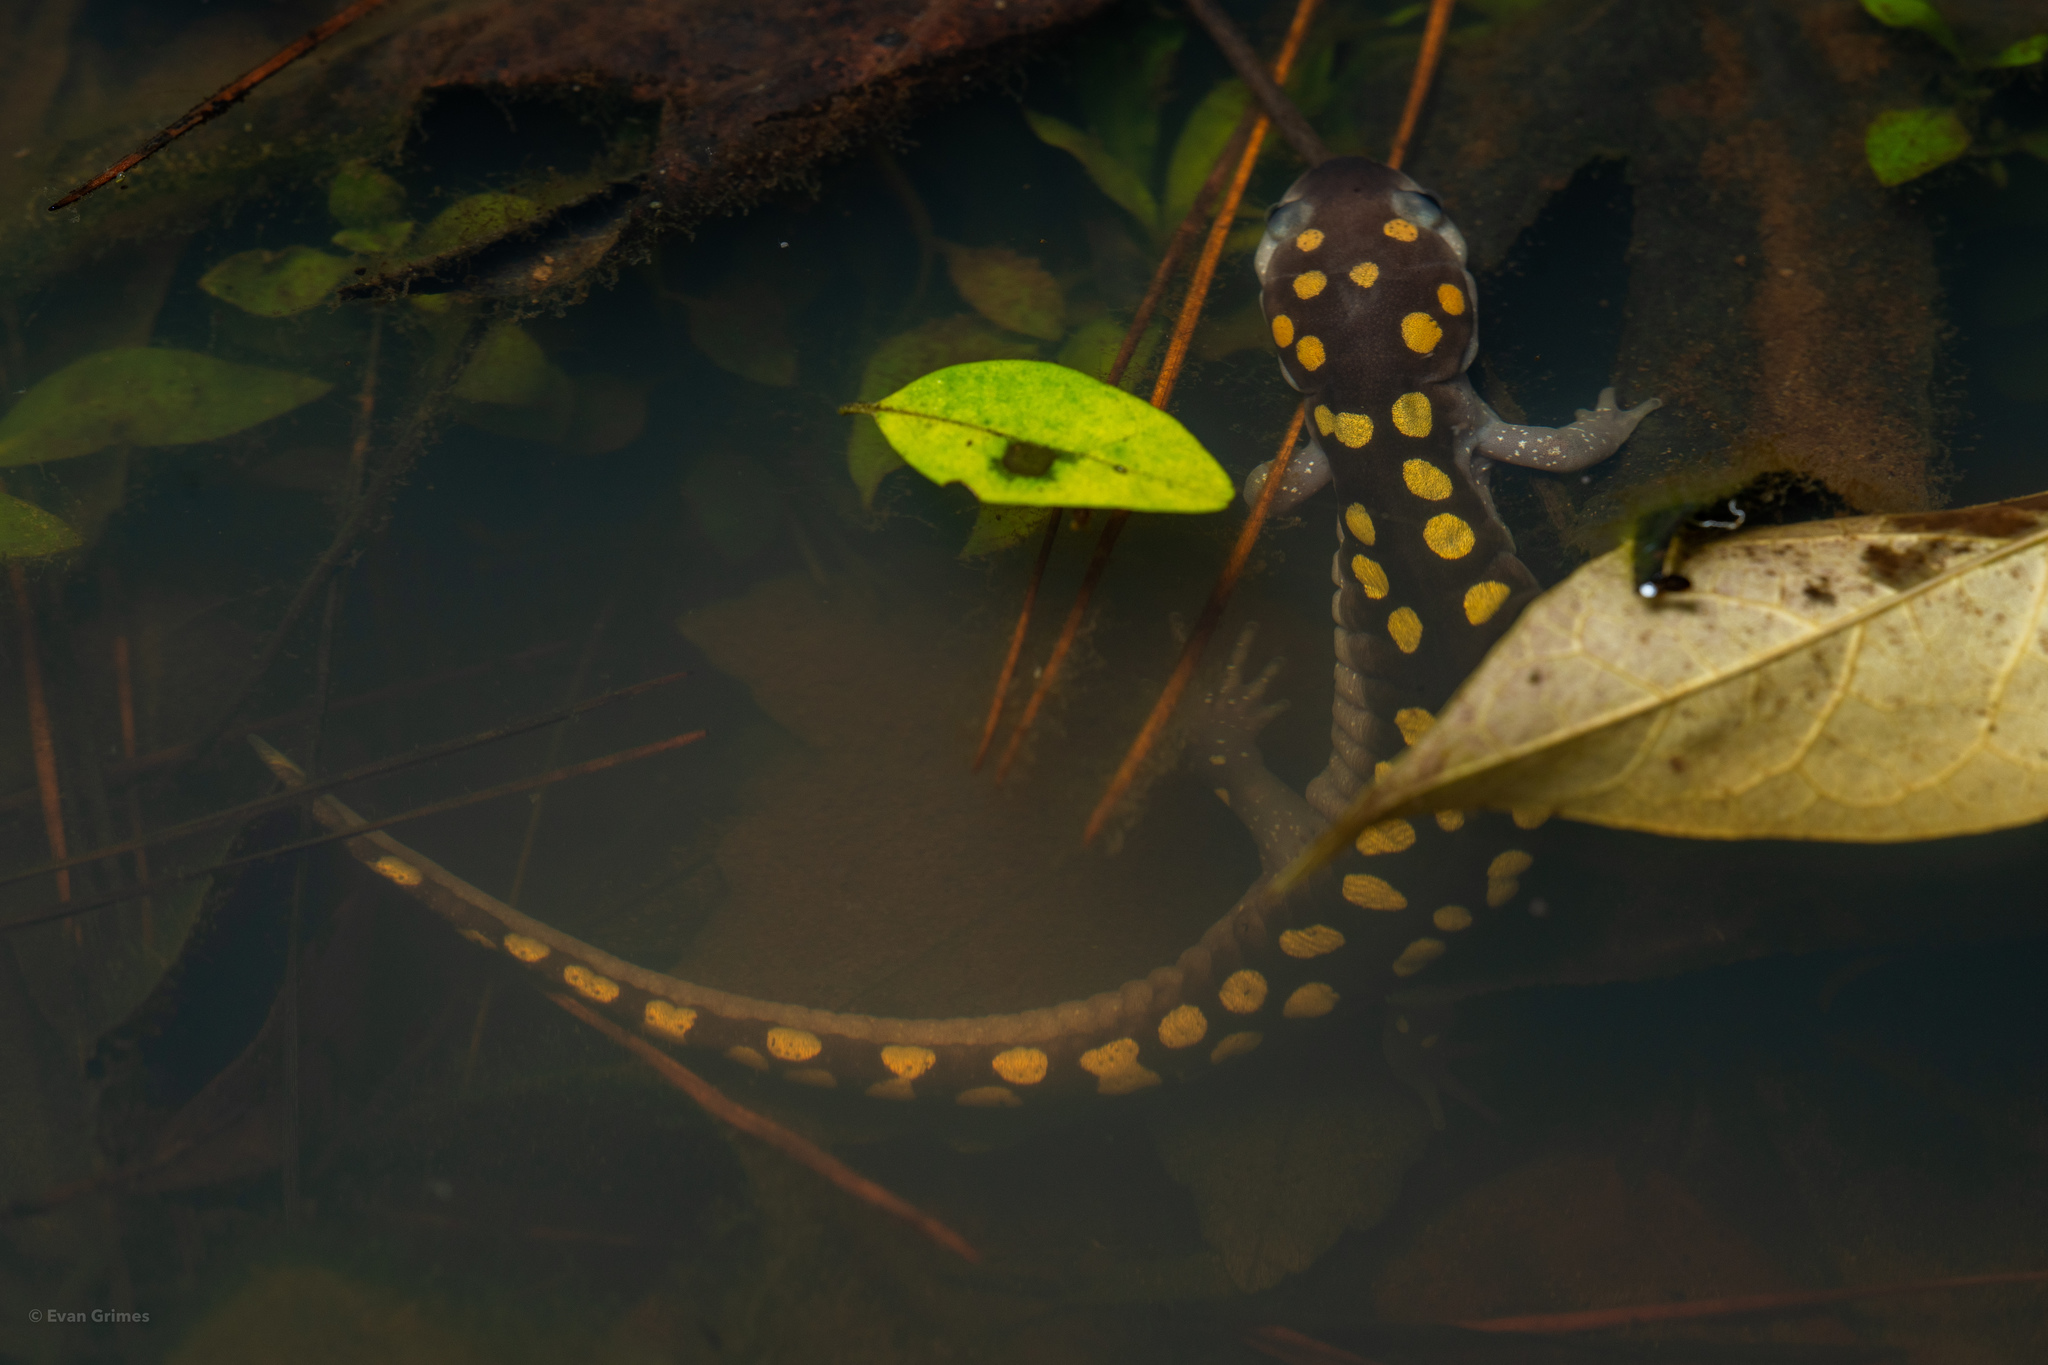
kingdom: Animalia
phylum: Chordata
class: Amphibia
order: Caudata
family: Ambystomatidae
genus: Ambystoma
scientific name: Ambystoma maculatum
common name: Spotted salamander
